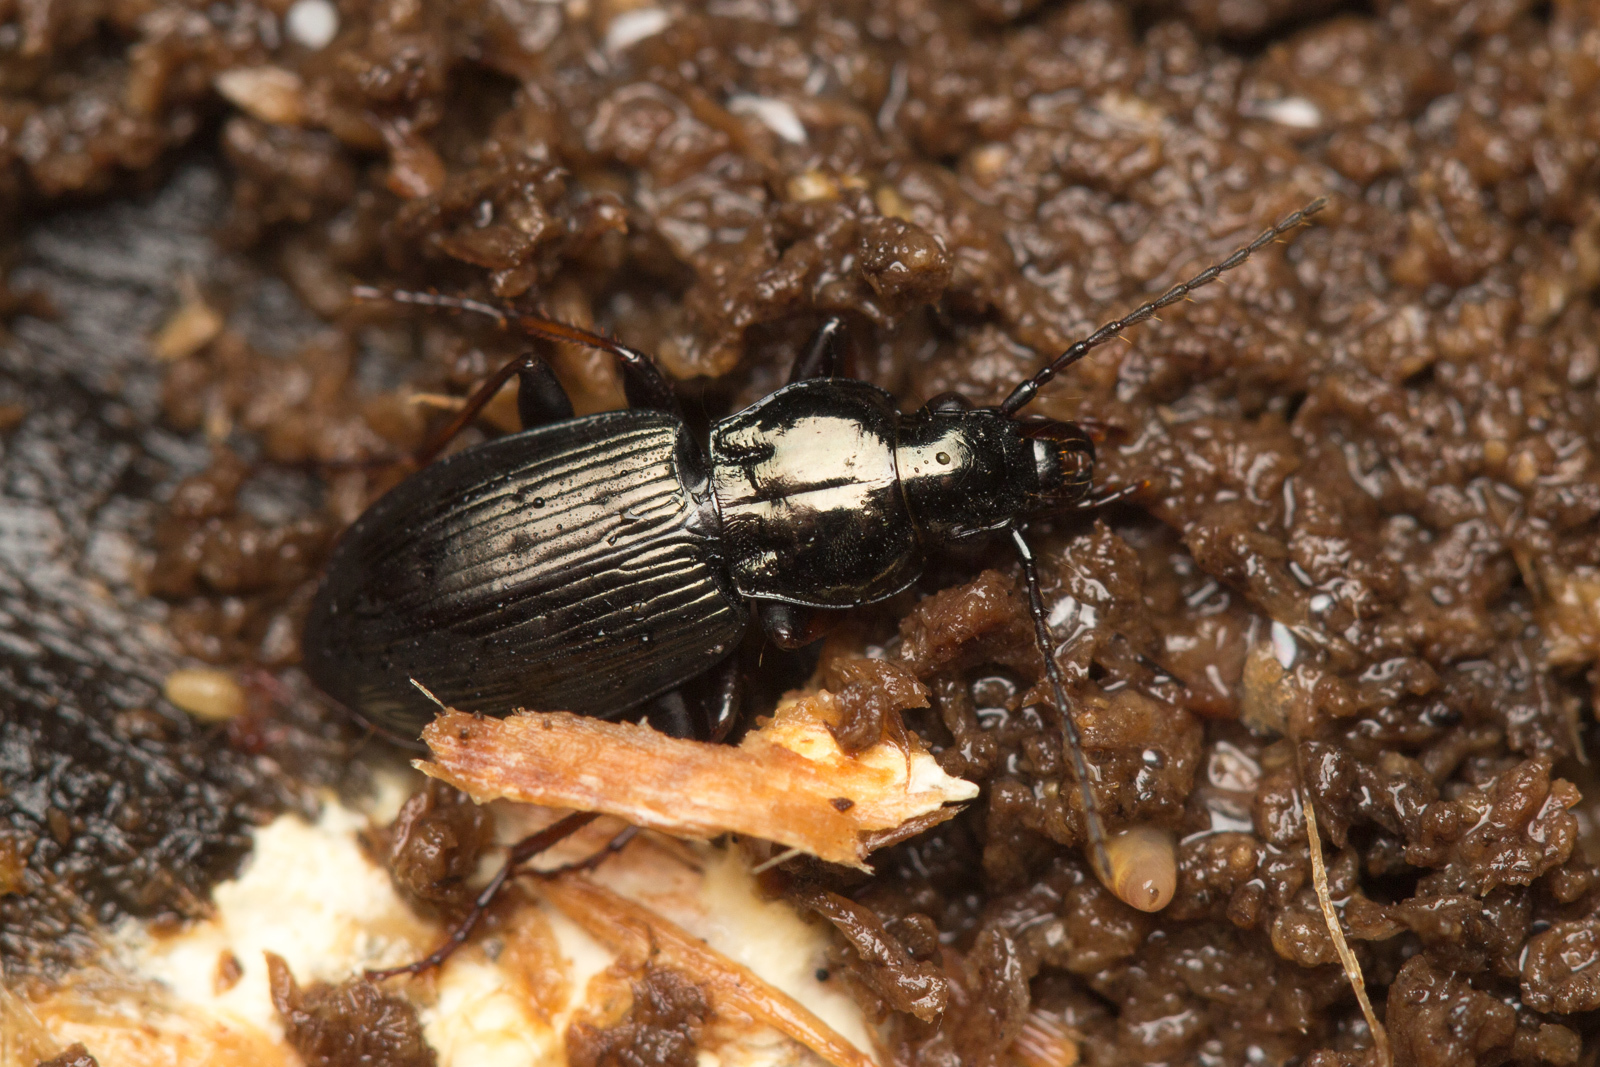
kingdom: Animalia
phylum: Arthropoda
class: Insecta
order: Coleoptera
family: Carabidae
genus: Pterostichus
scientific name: Pterostichus oblongopunctatus
